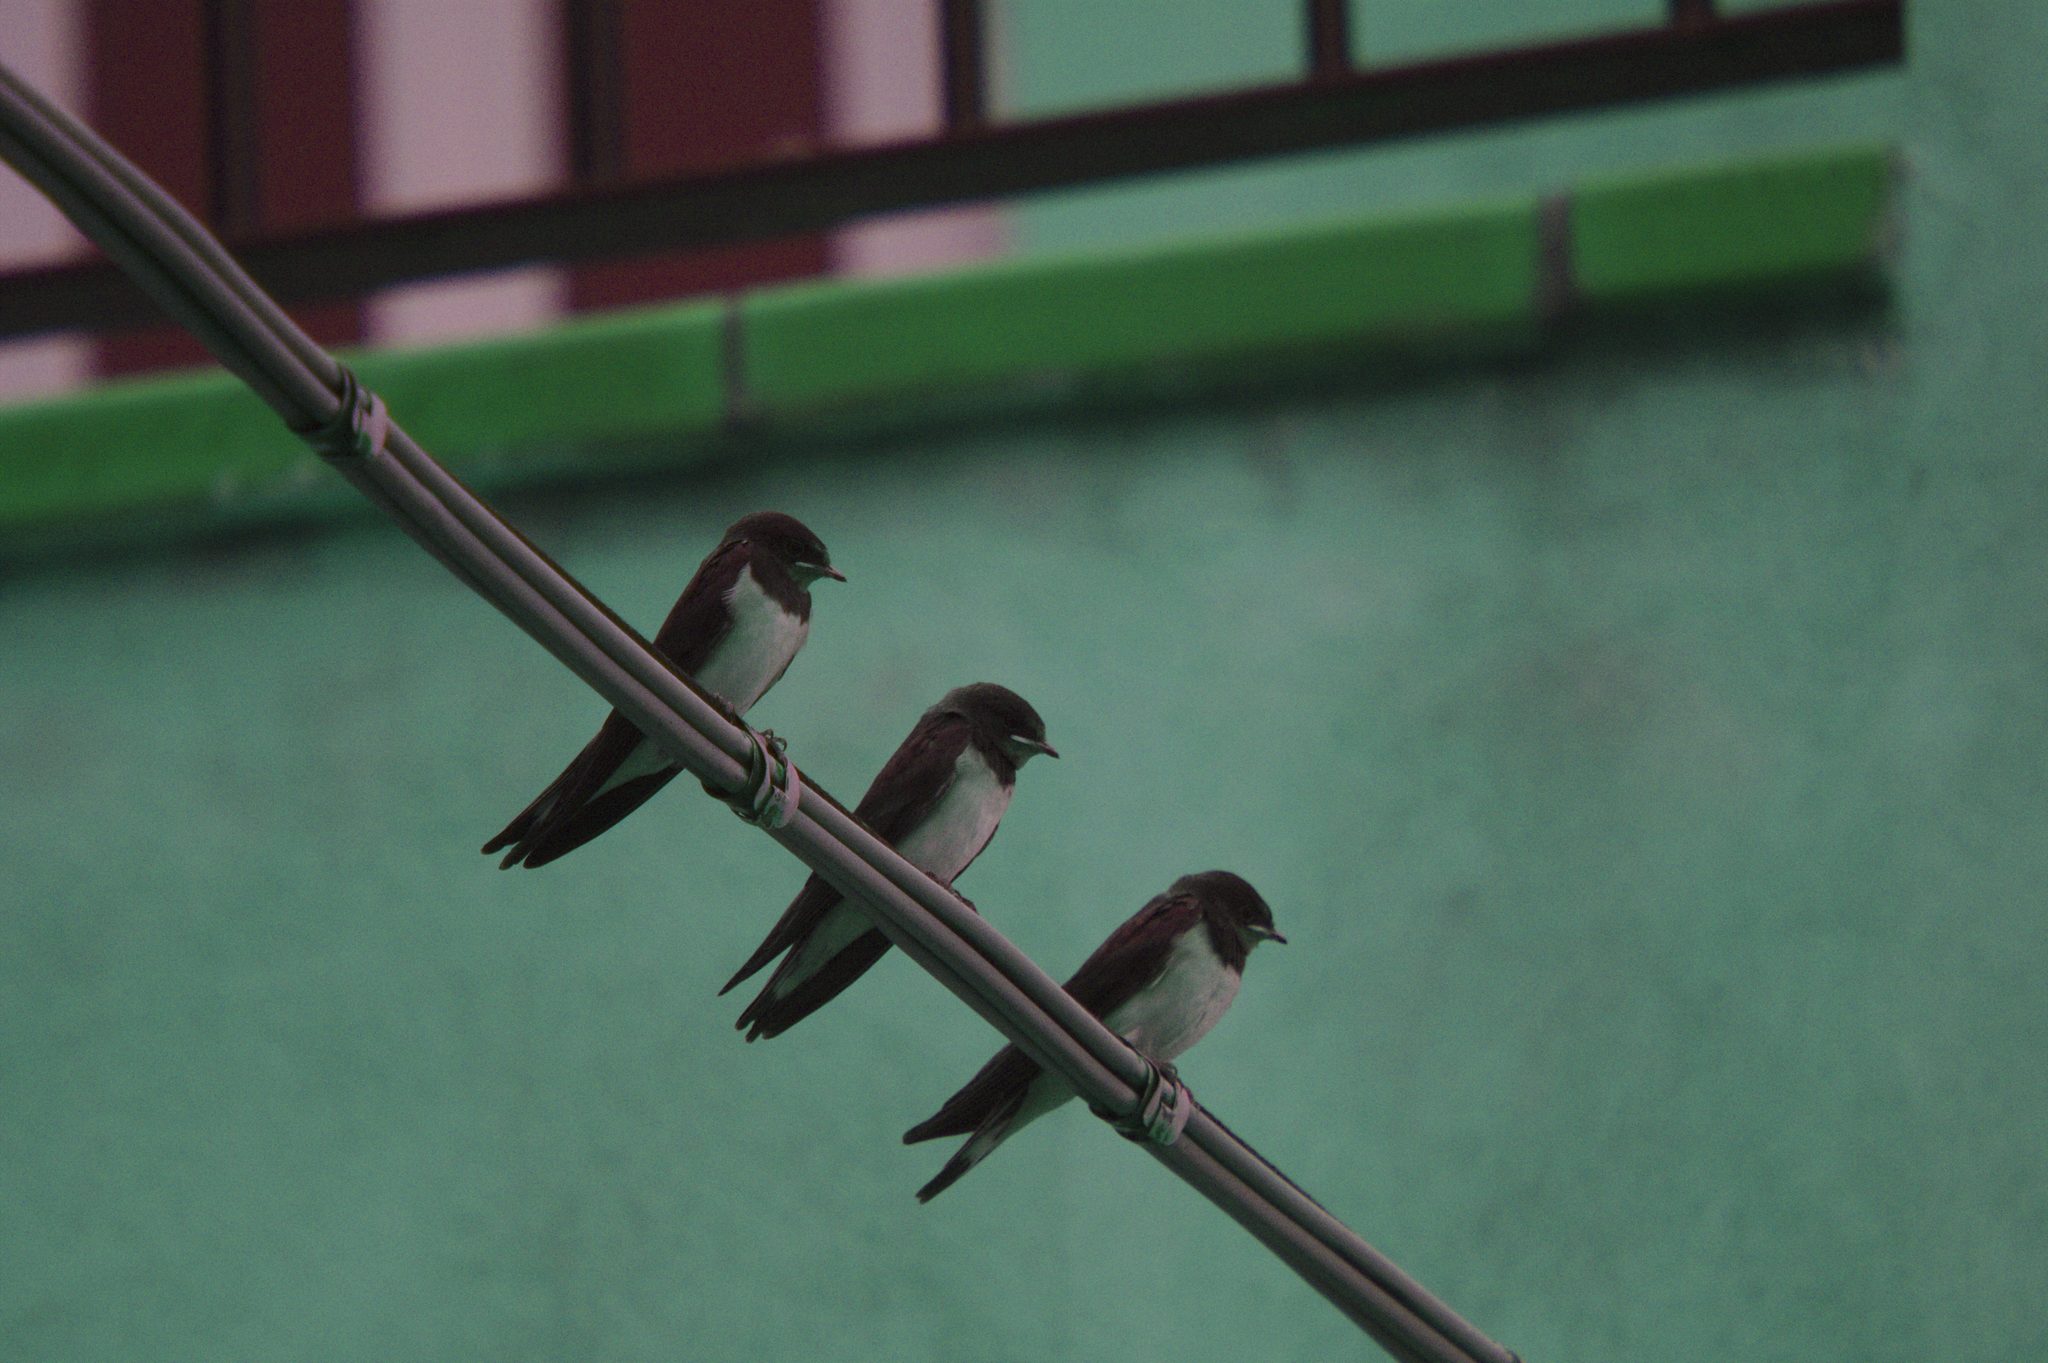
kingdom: Animalia
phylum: Chordata
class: Aves
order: Passeriformes
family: Hirundinidae
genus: Hirundo
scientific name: Hirundo rustica
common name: Barn swallow
